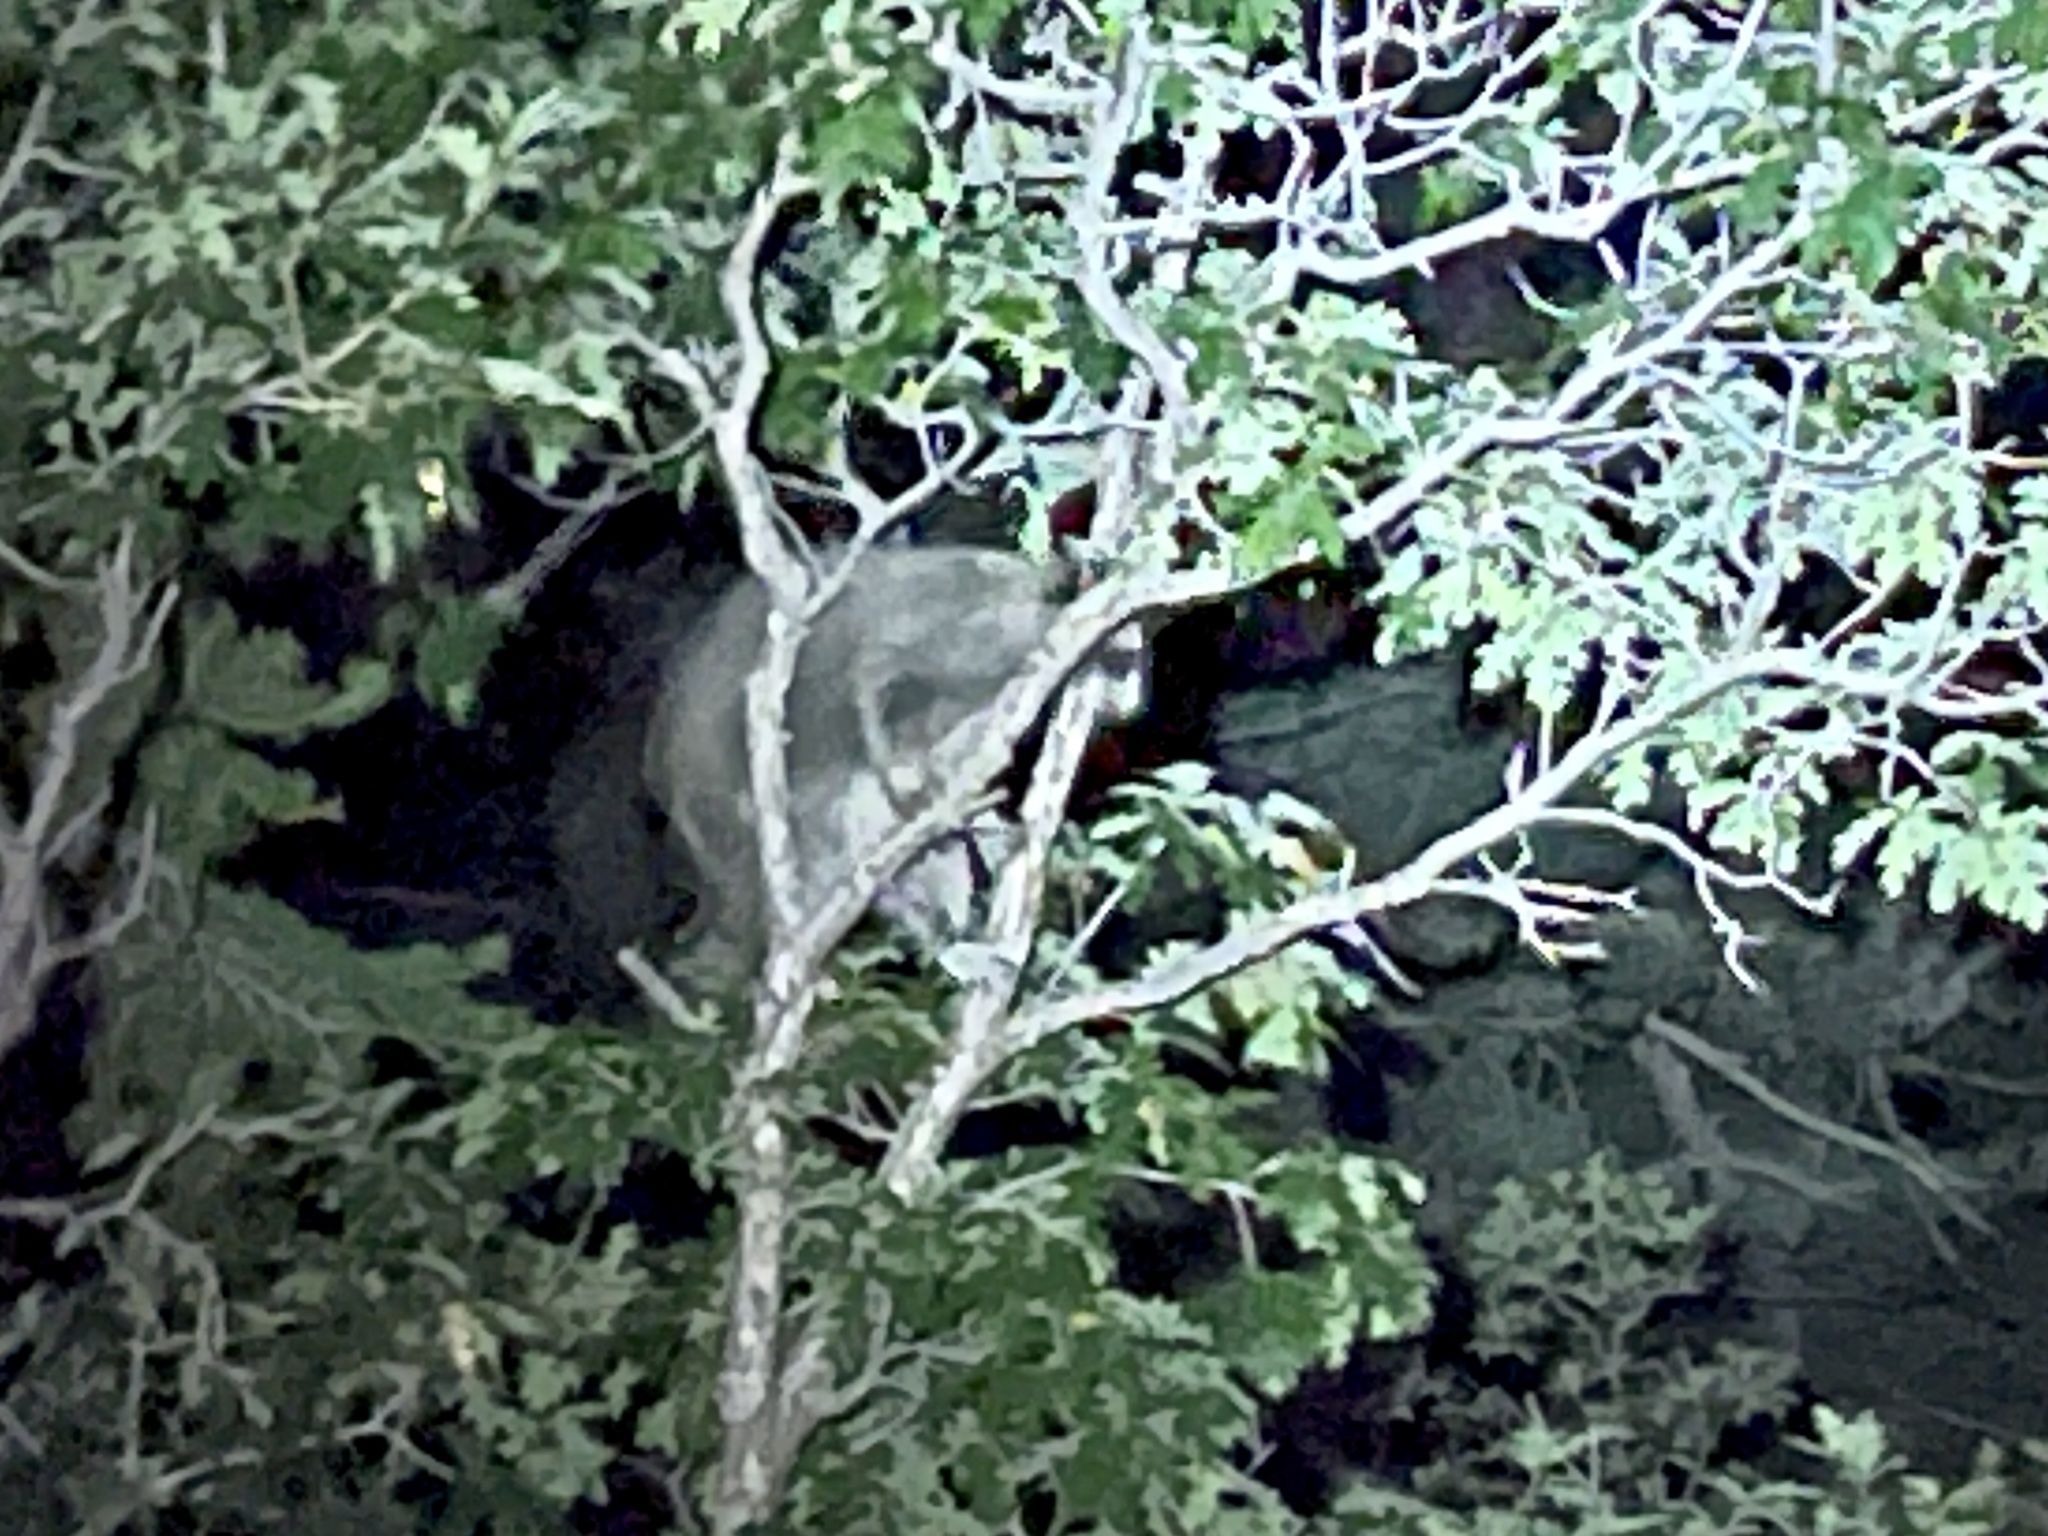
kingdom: Animalia
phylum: Chordata
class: Mammalia
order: Carnivora
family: Procyonidae
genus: Procyon
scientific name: Procyon lotor
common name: Raccoon
